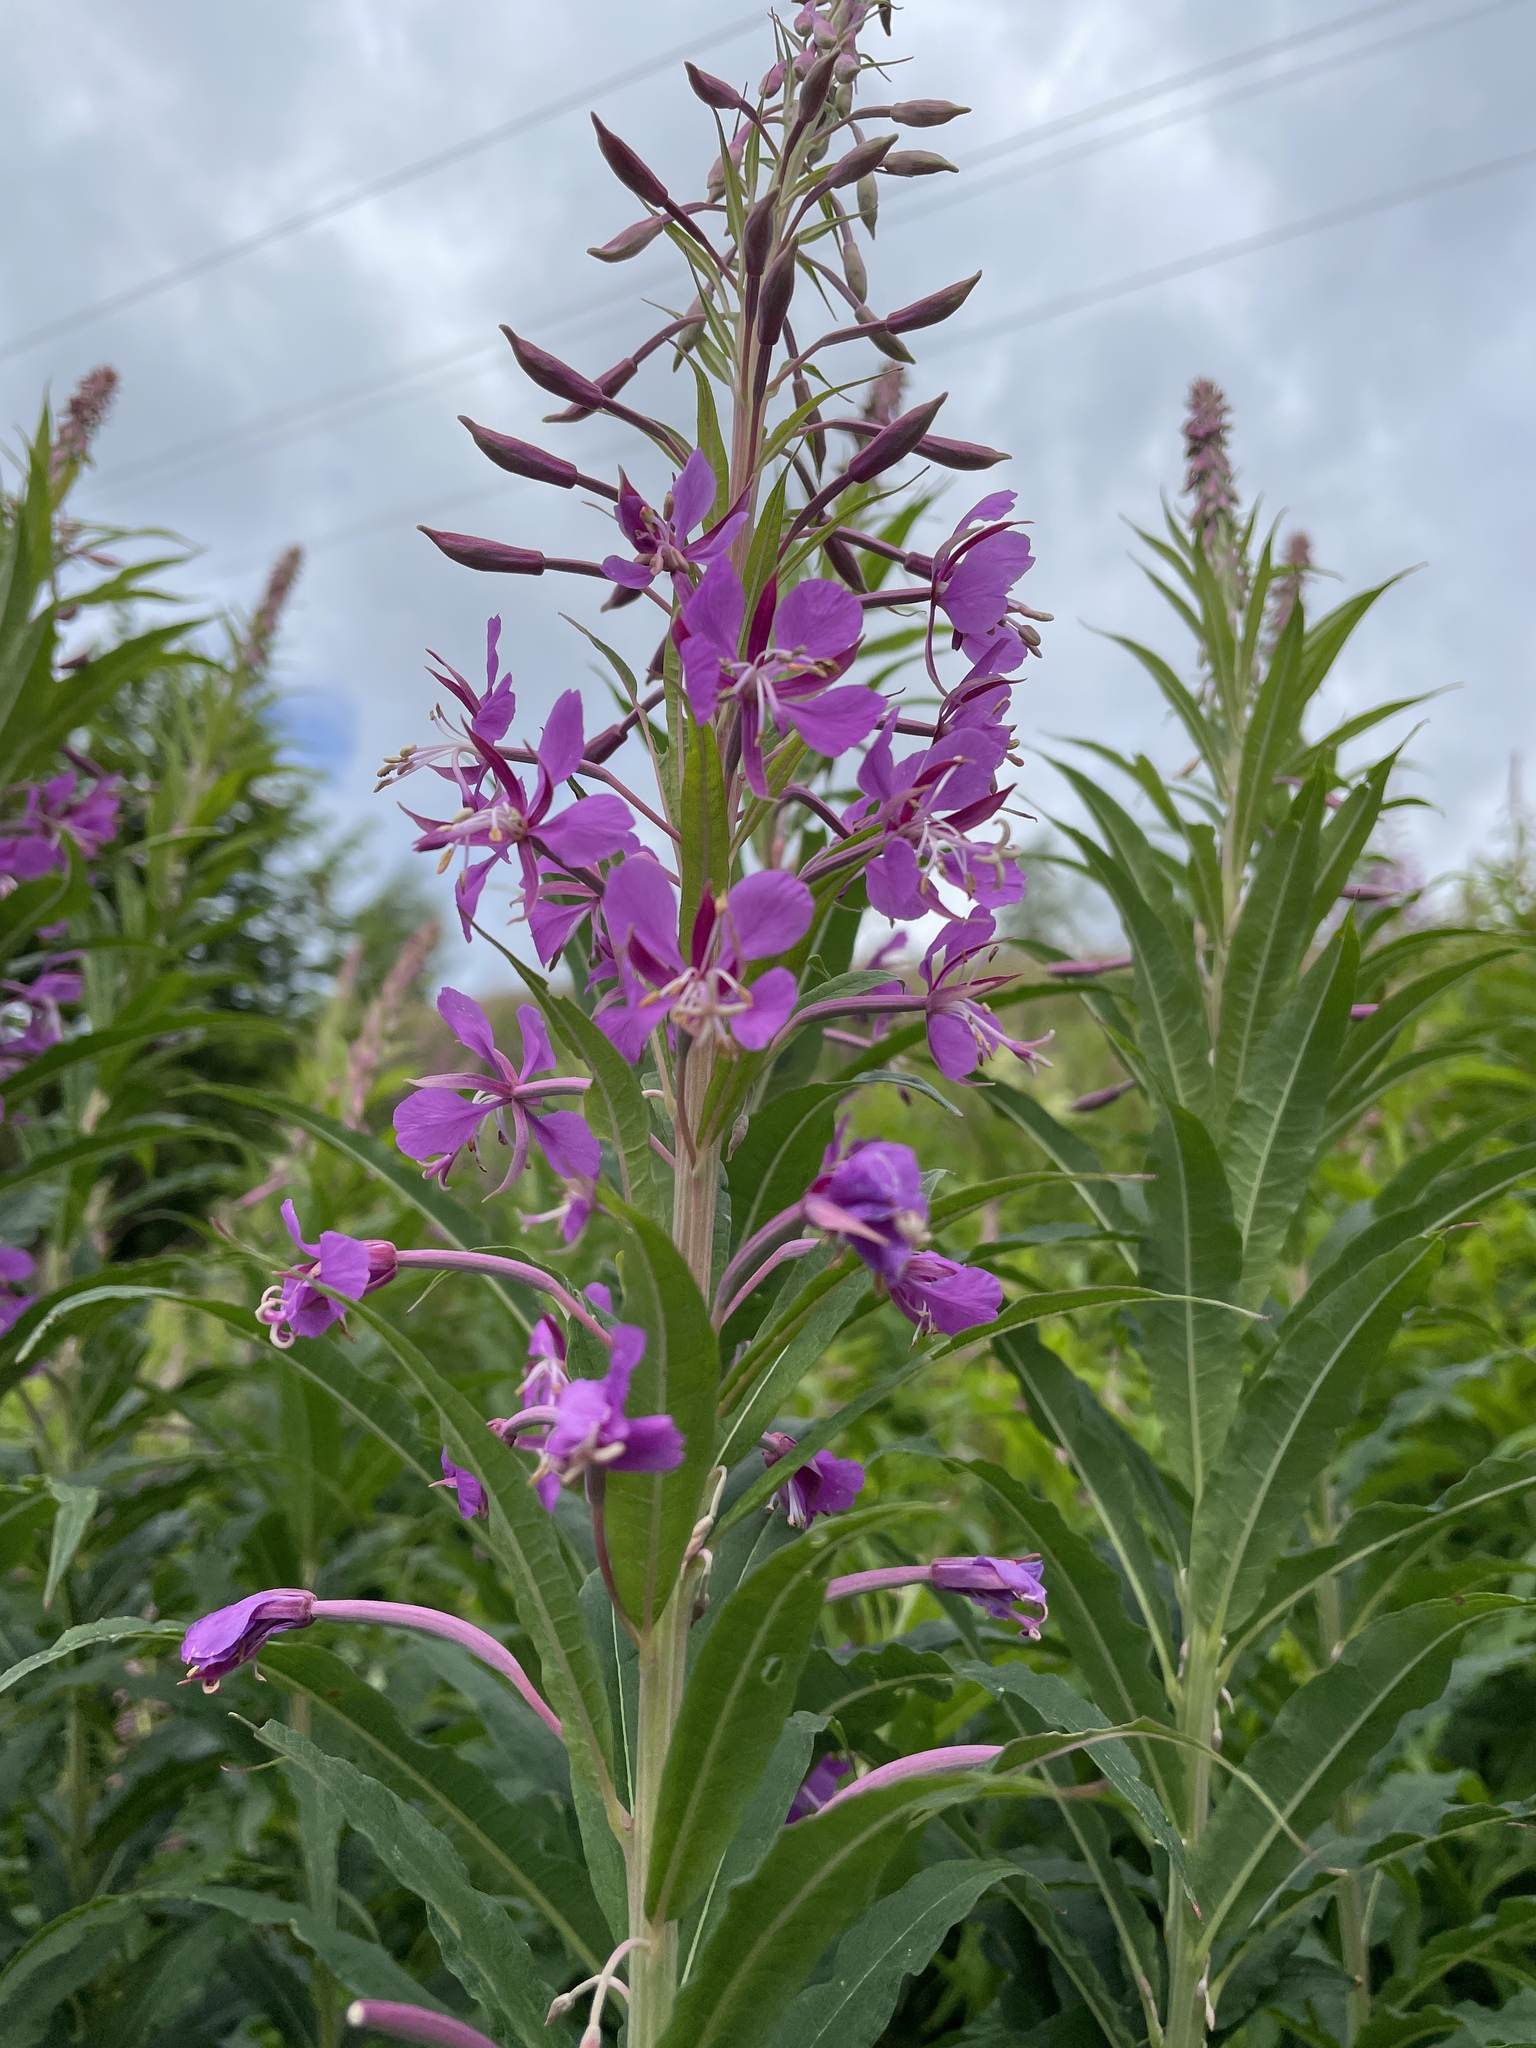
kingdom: Plantae
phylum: Tracheophyta
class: Magnoliopsida
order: Myrtales
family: Onagraceae
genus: Chamaenerion
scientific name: Chamaenerion angustifolium
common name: Fireweed
